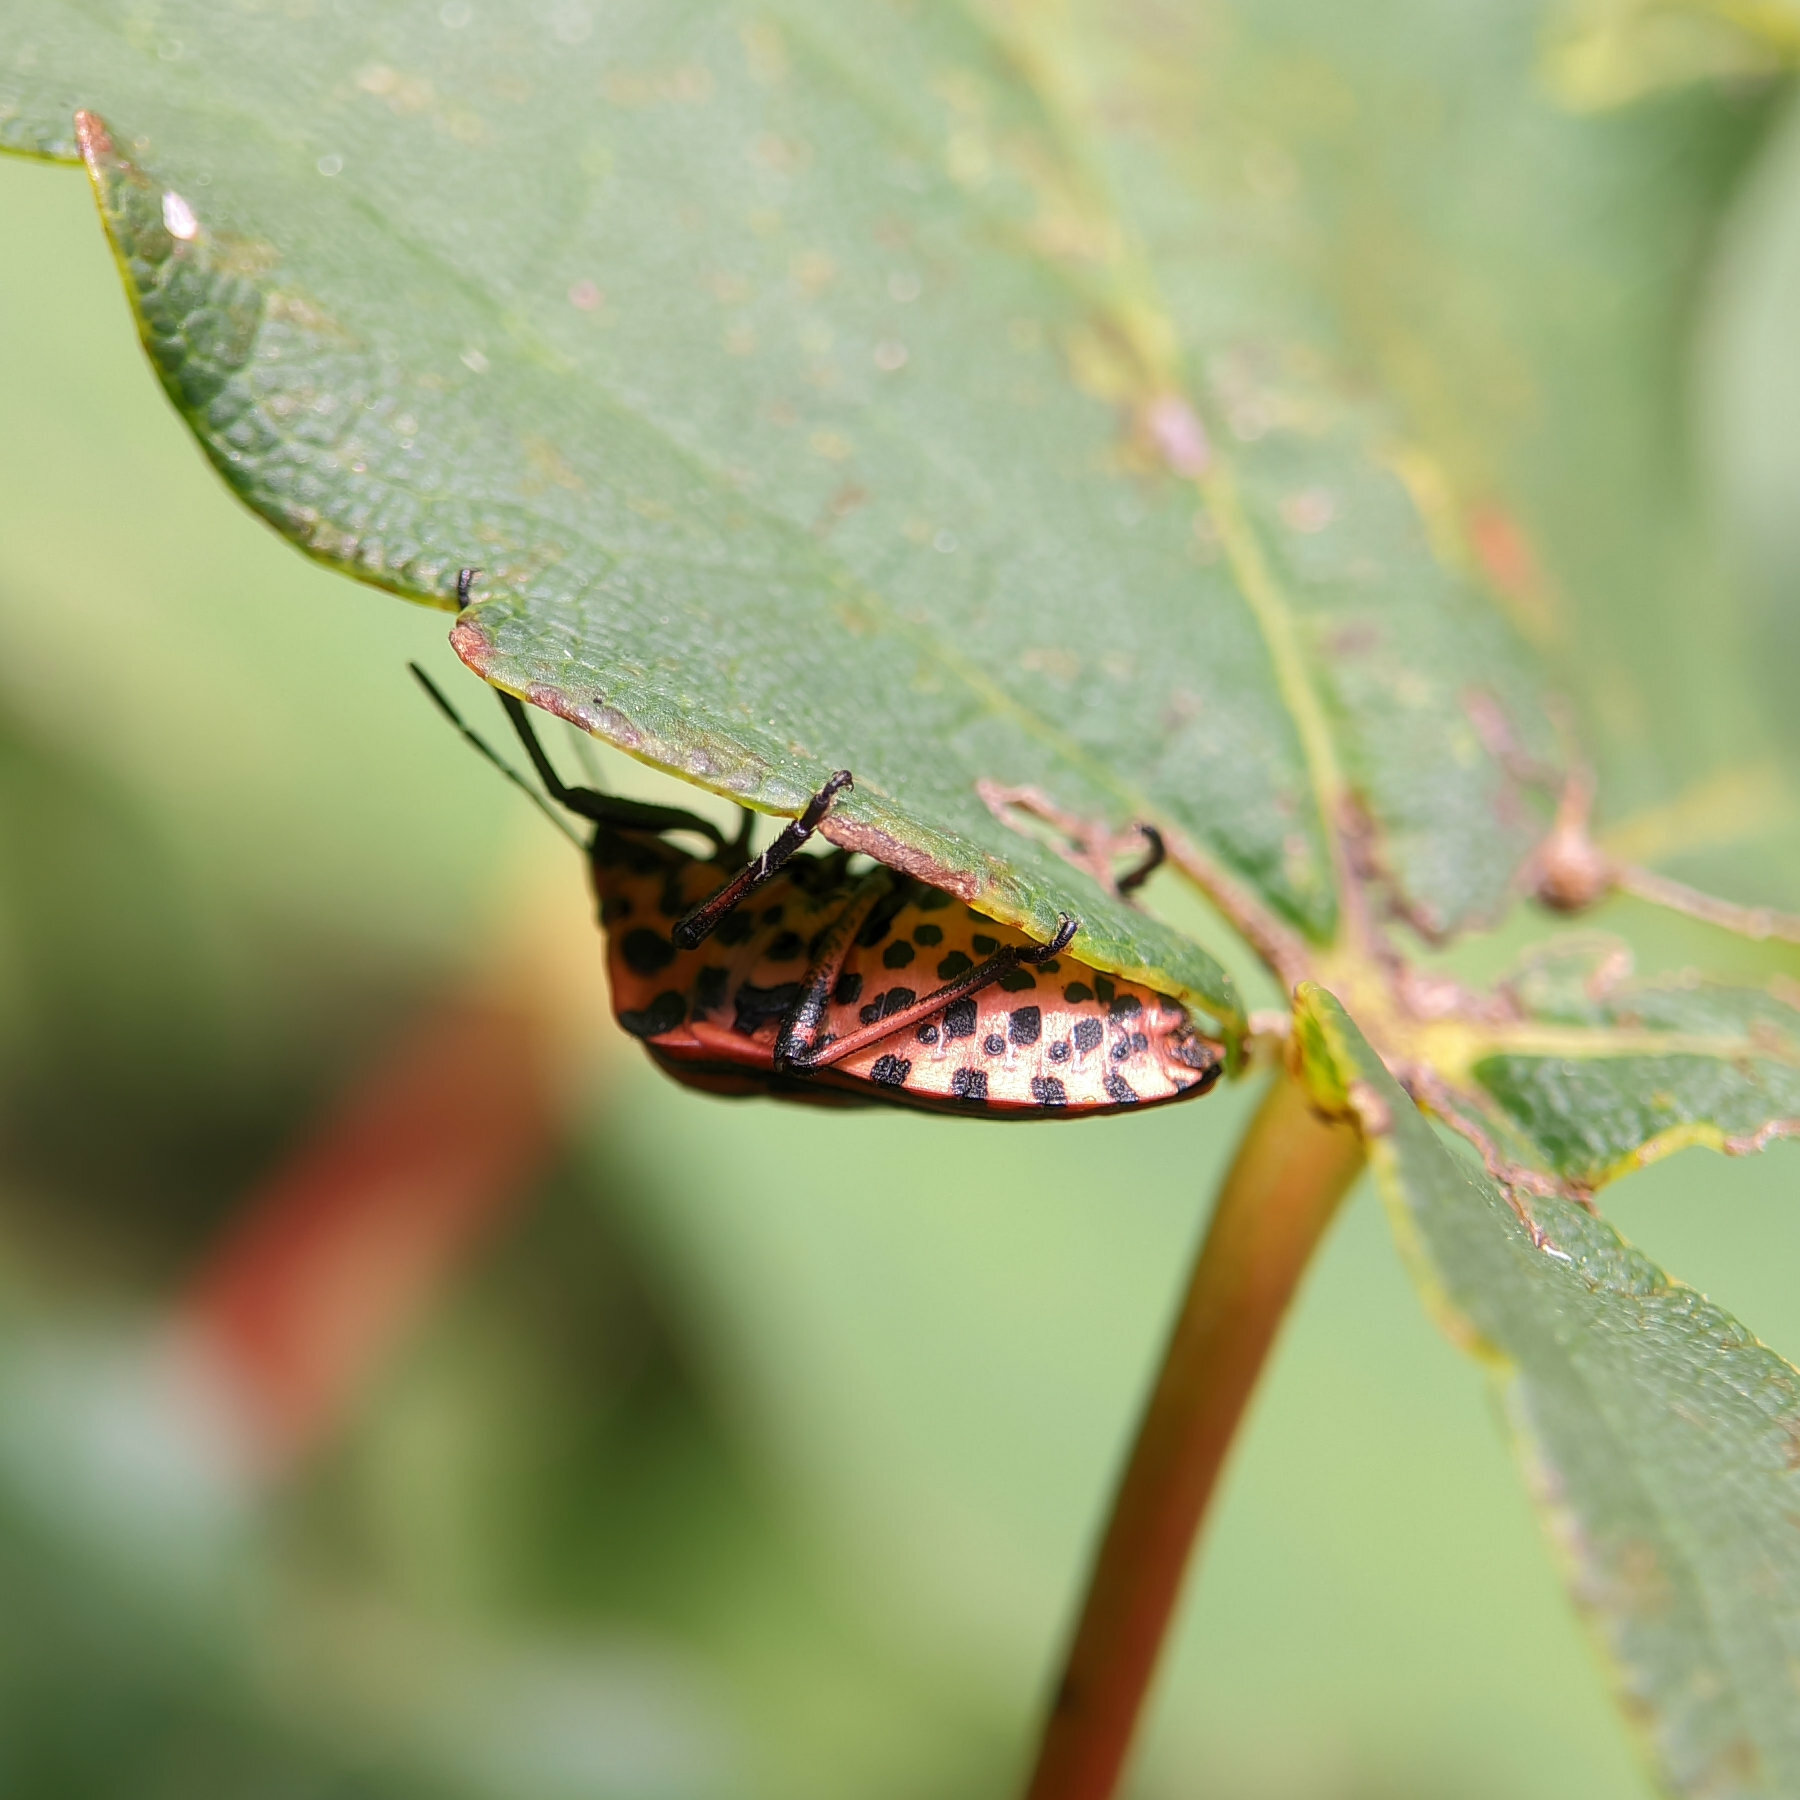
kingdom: Animalia
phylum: Arthropoda
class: Insecta
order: Hemiptera
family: Pentatomidae
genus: Graphosoma
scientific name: Graphosoma italicum
